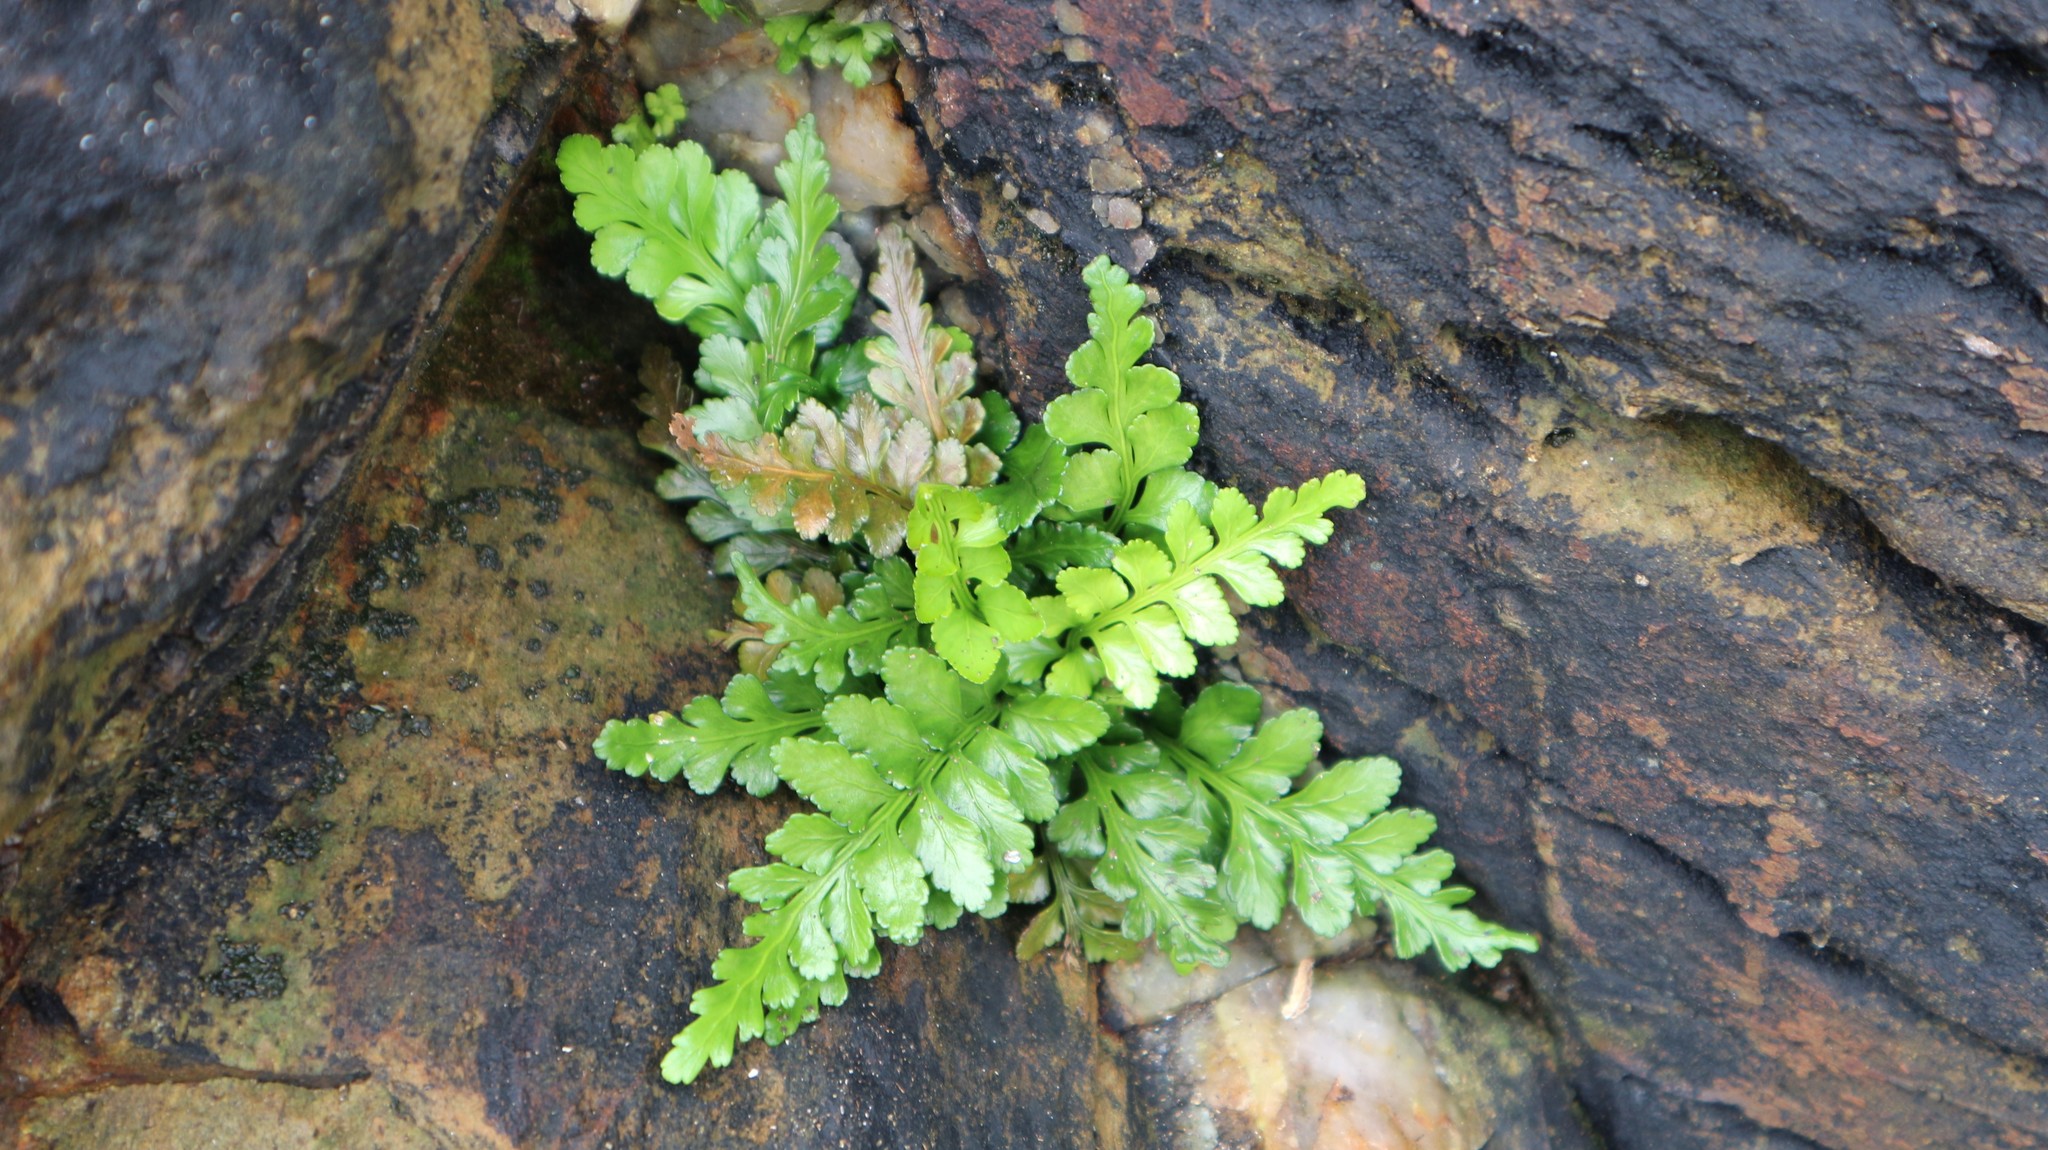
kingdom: Plantae
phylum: Tracheophyta
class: Polypodiopsida
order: Polypodiales
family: Aspleniaceae
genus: Asplenium
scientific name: Asplenium marinum
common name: Sea spleenwort
